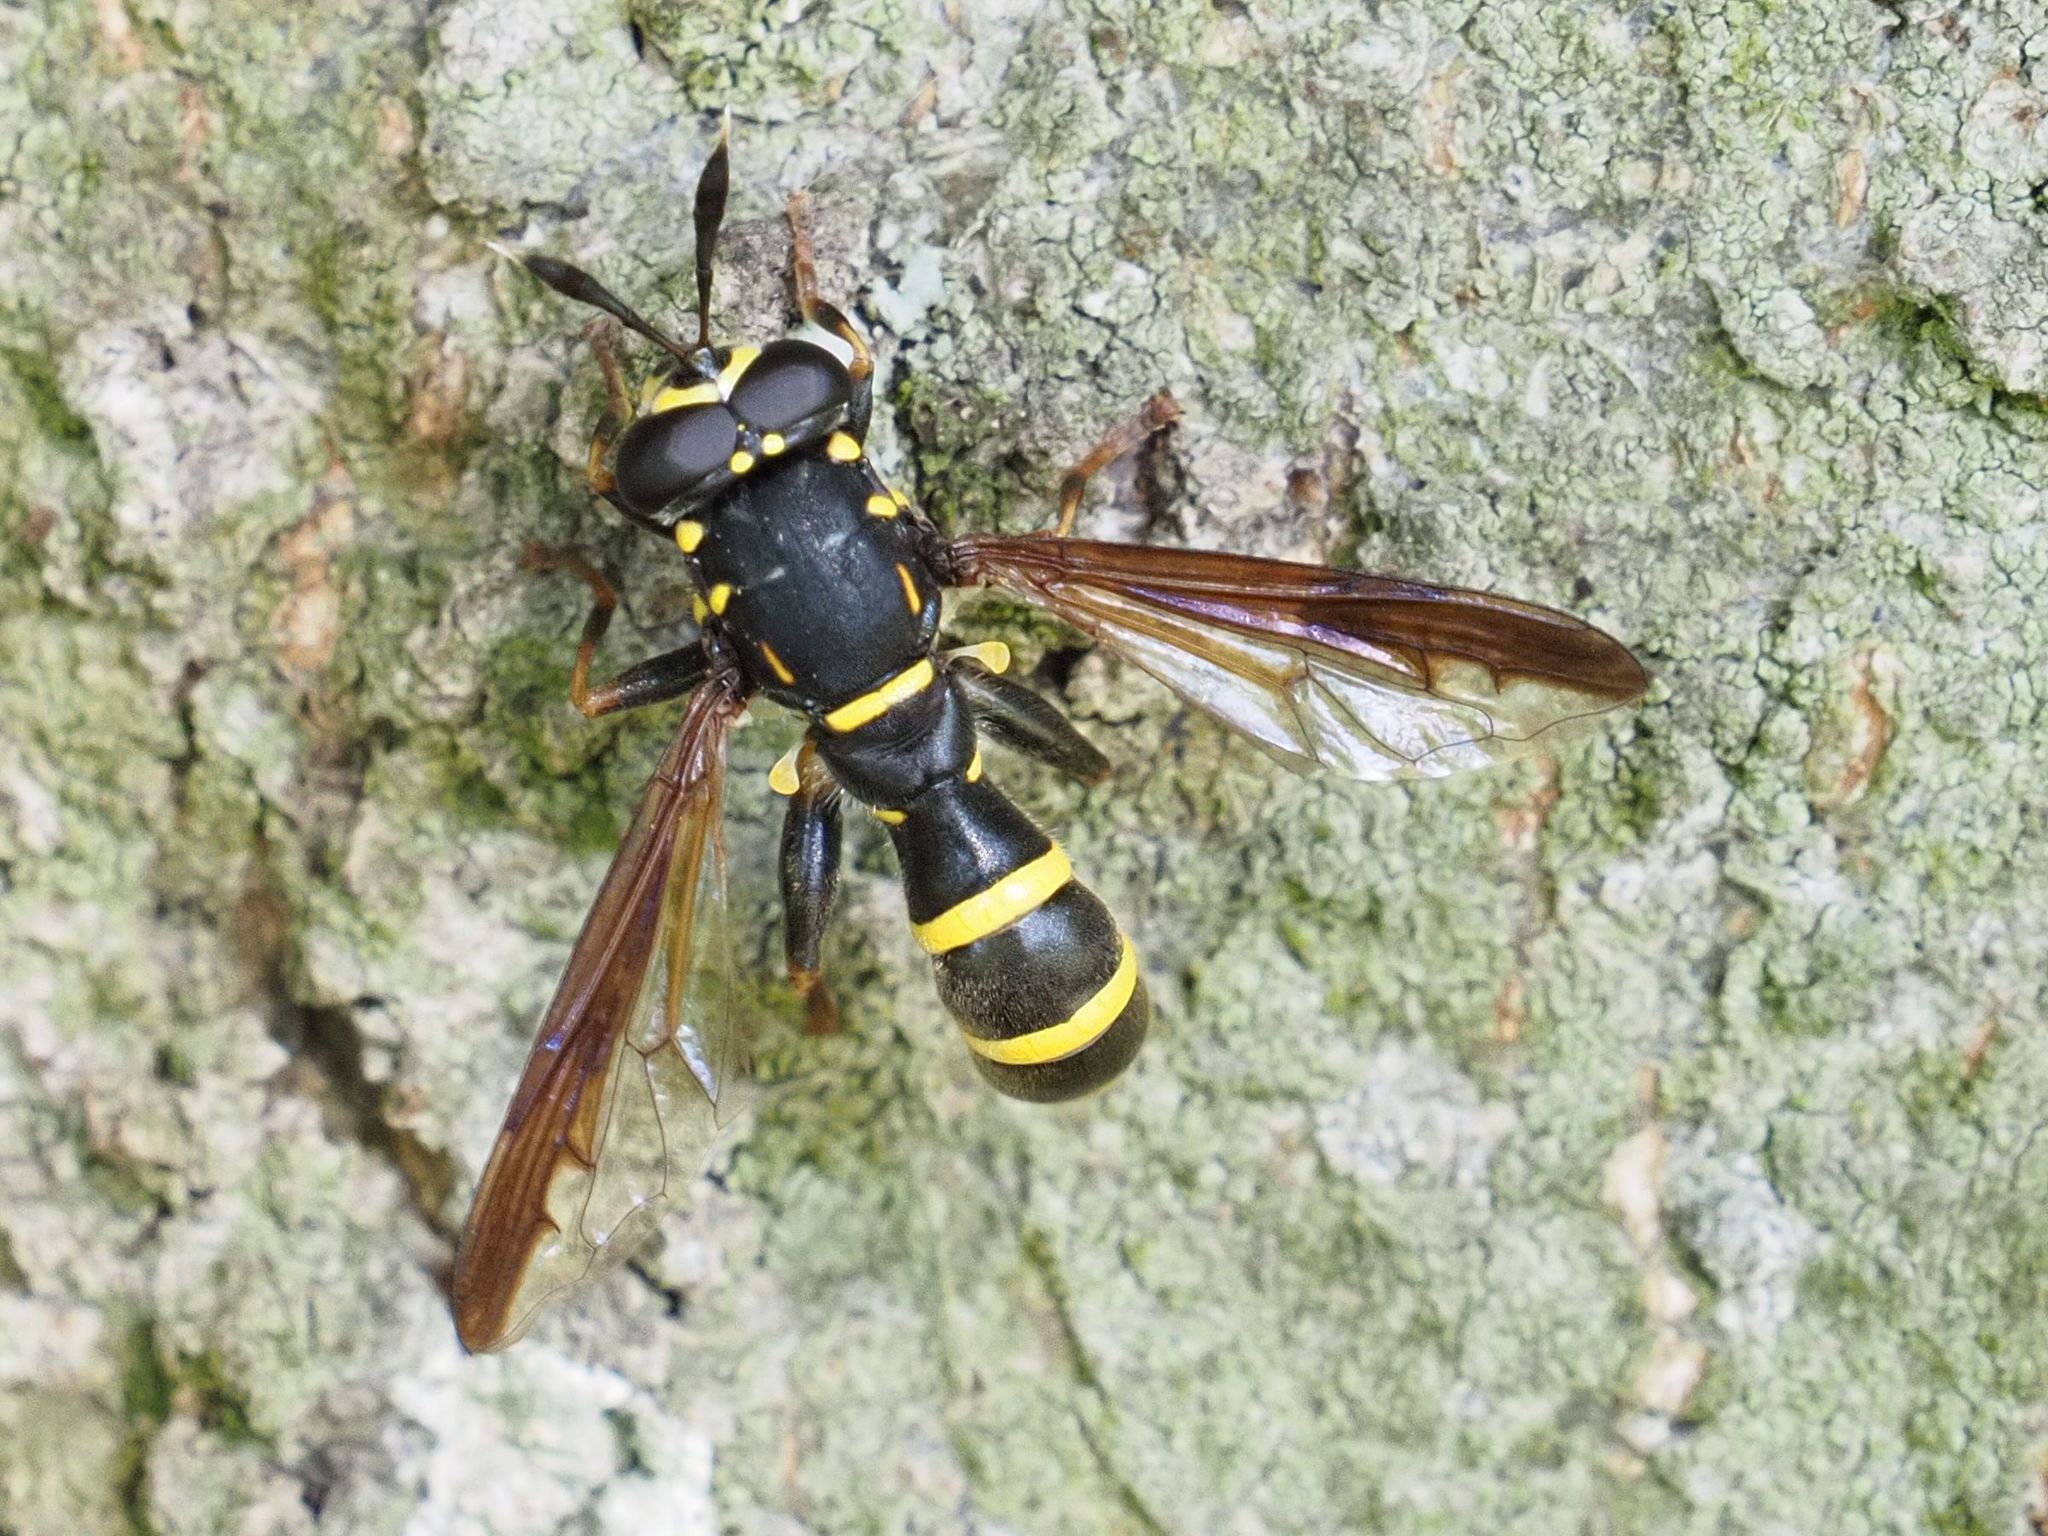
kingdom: Animalia
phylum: Arthropoda
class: Insecta
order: Diptera
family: Syrphidae
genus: Sphiximorpha
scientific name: Sphiximorpha subsessilis
